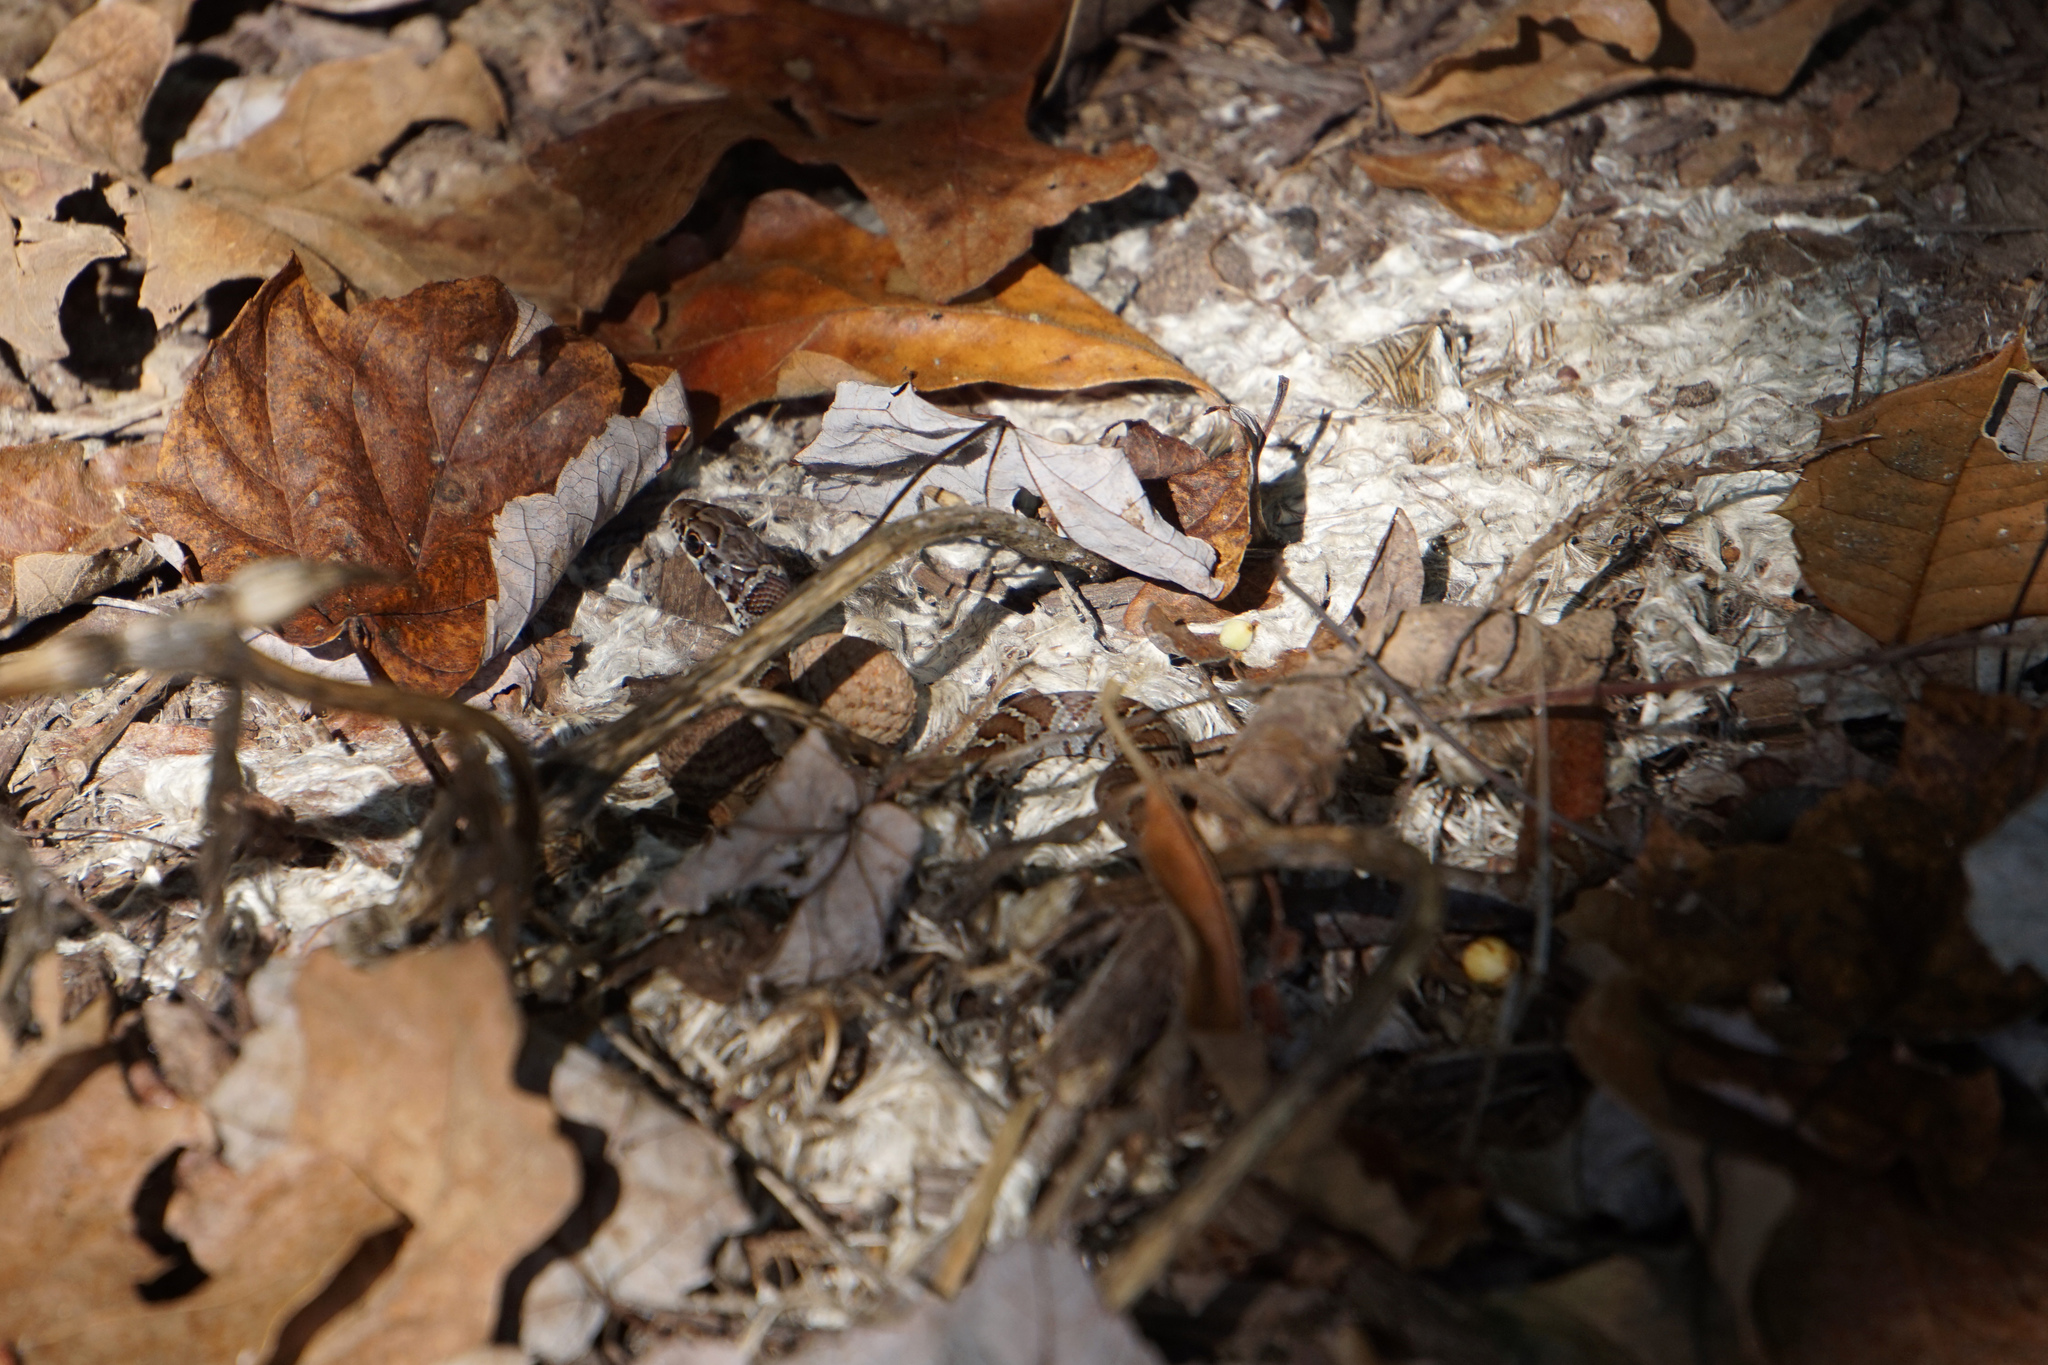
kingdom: Animalia
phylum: Chordata
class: Squamata
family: Colubridae
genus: Coluber
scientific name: Coluber constrictor
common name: Eastern racer
